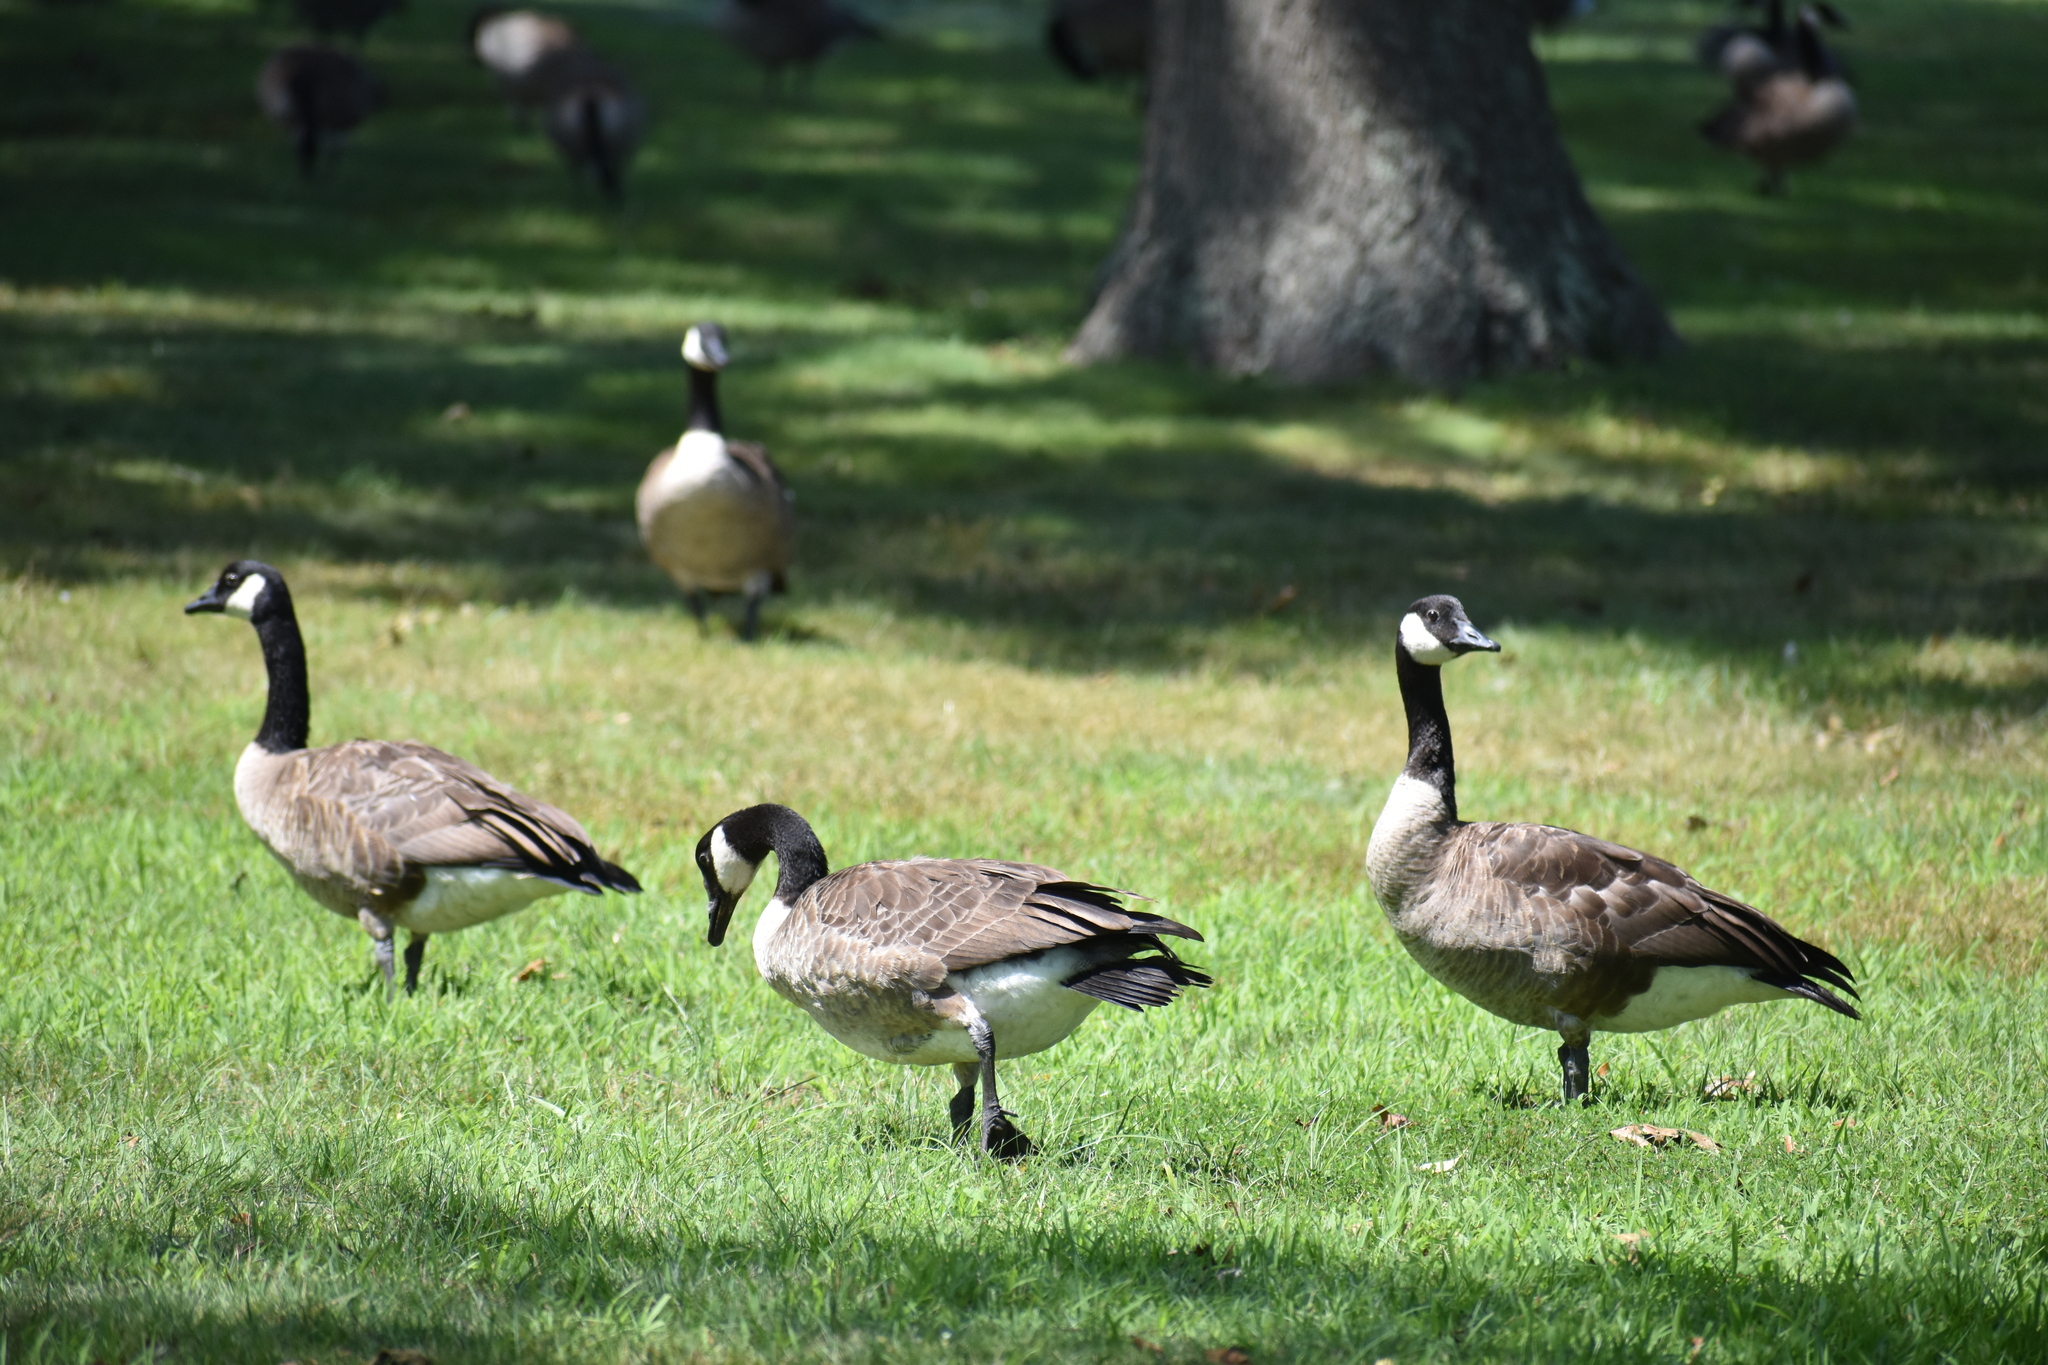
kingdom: Animalia
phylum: Chordata
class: Aves
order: Anseriformes
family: Anatidae
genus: Branta
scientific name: Branta canadensis
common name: Canada goose
